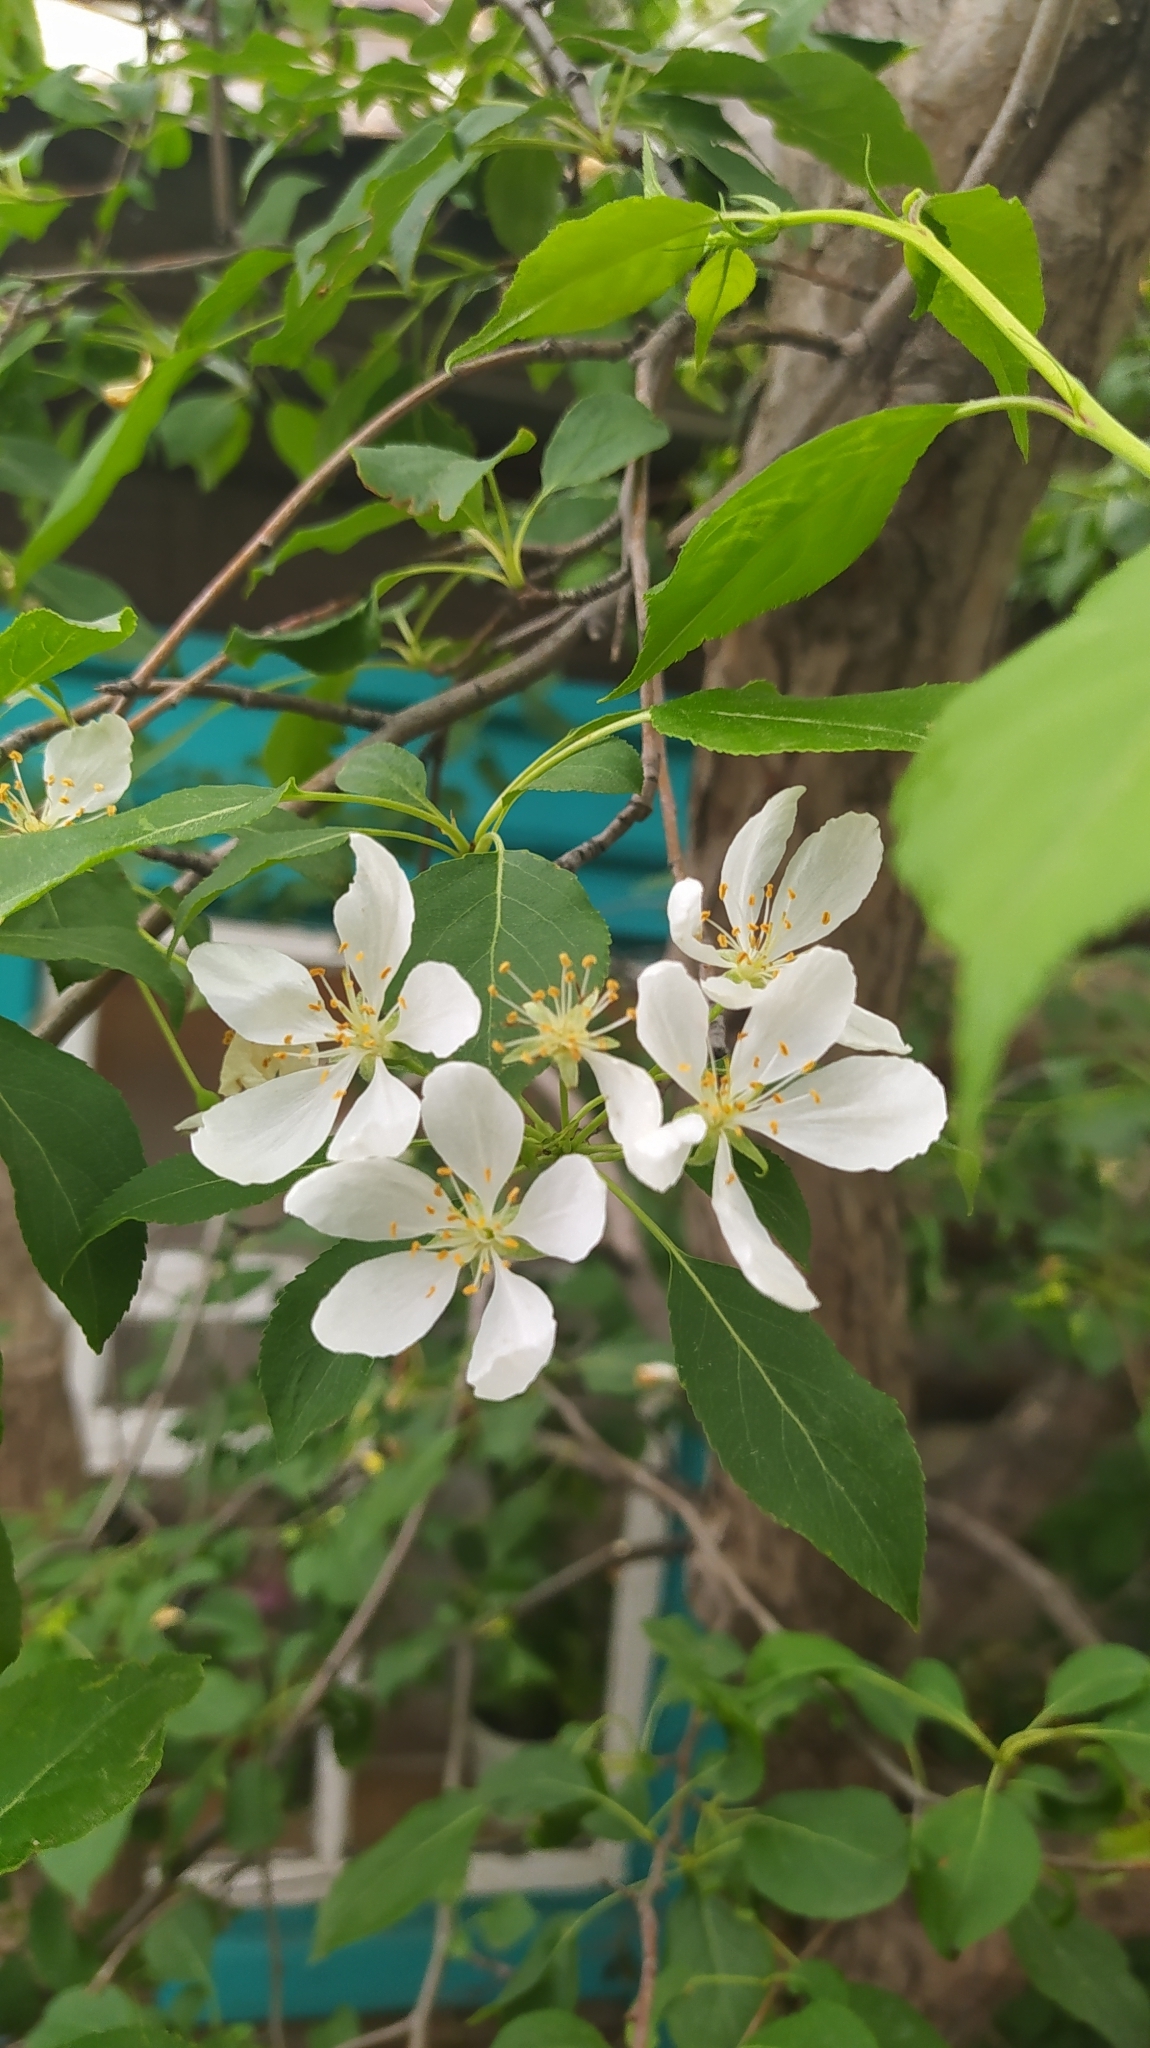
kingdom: Plantae
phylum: Tracheophyta
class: Magnoliopsida
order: Rosales
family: Rosaceae
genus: Malus
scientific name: Malus baccata
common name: Siberian crab
